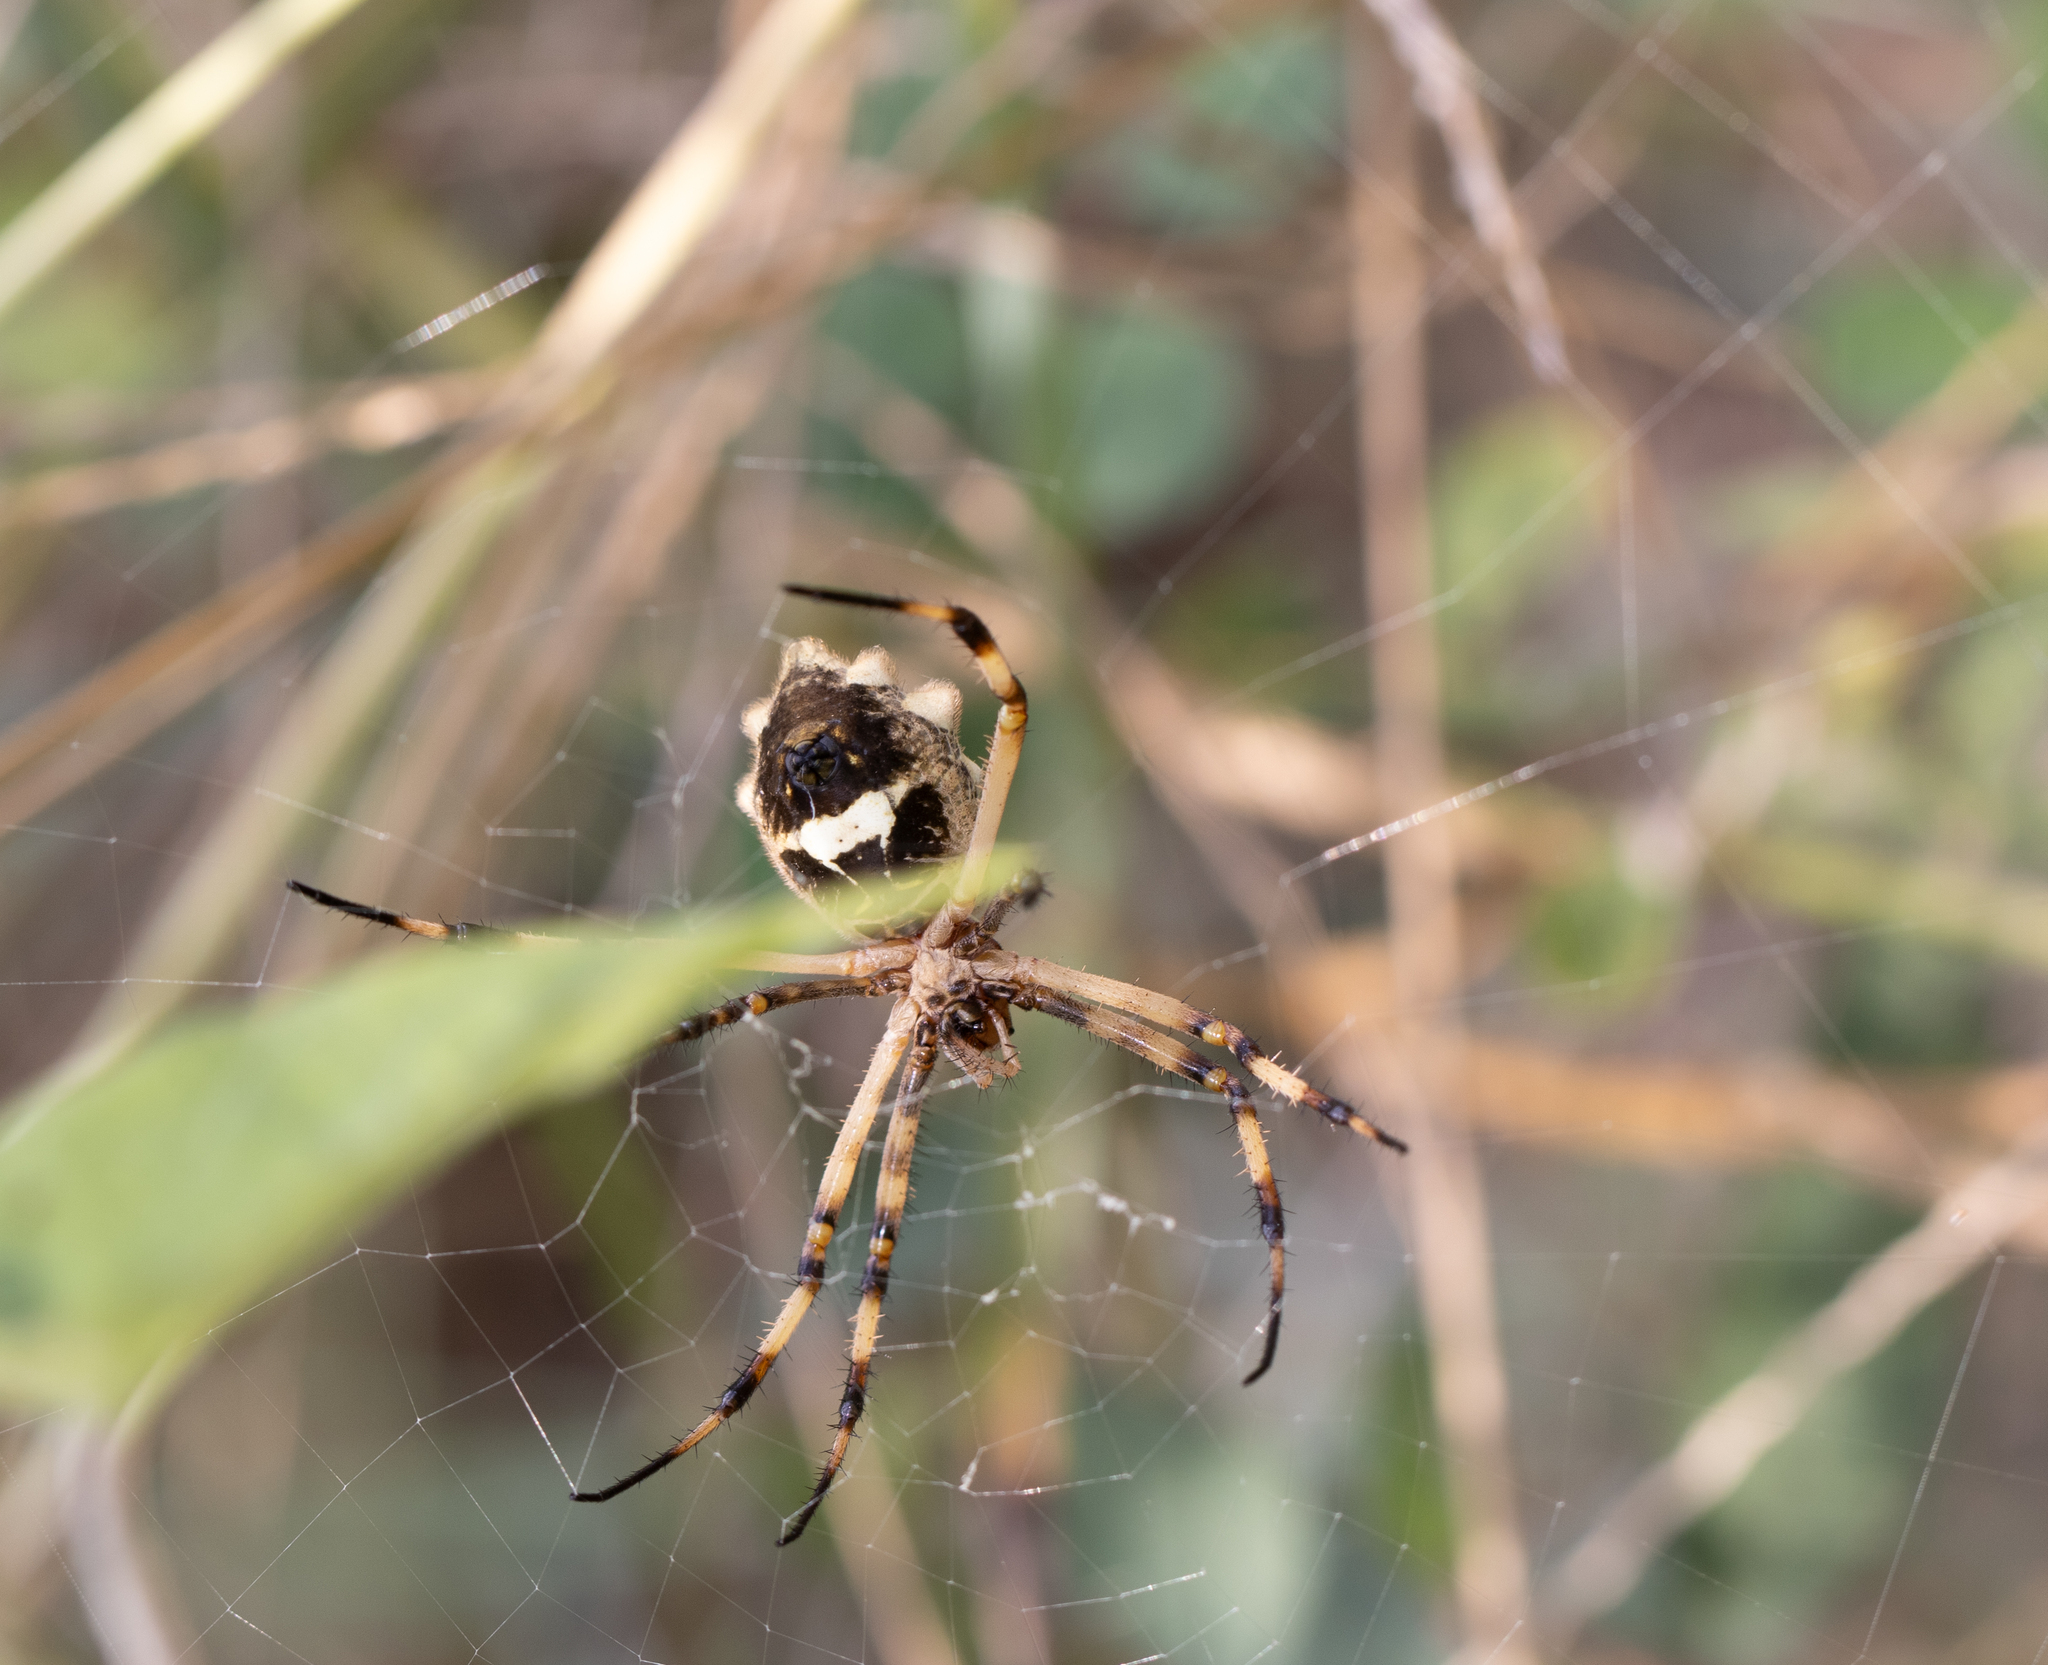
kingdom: Animalia
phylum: Arthropoda
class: Arachnida
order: Araneae
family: Araneidae
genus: Argiope
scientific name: Argiope argentata
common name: Orb weavers
